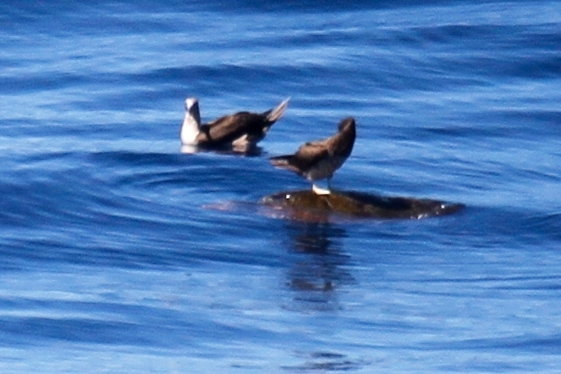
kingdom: Animalia
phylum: Chordata
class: Testudines
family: Cheloniidae
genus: Caretta
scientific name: Caretta caretta
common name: Loggerhead sea turtle
